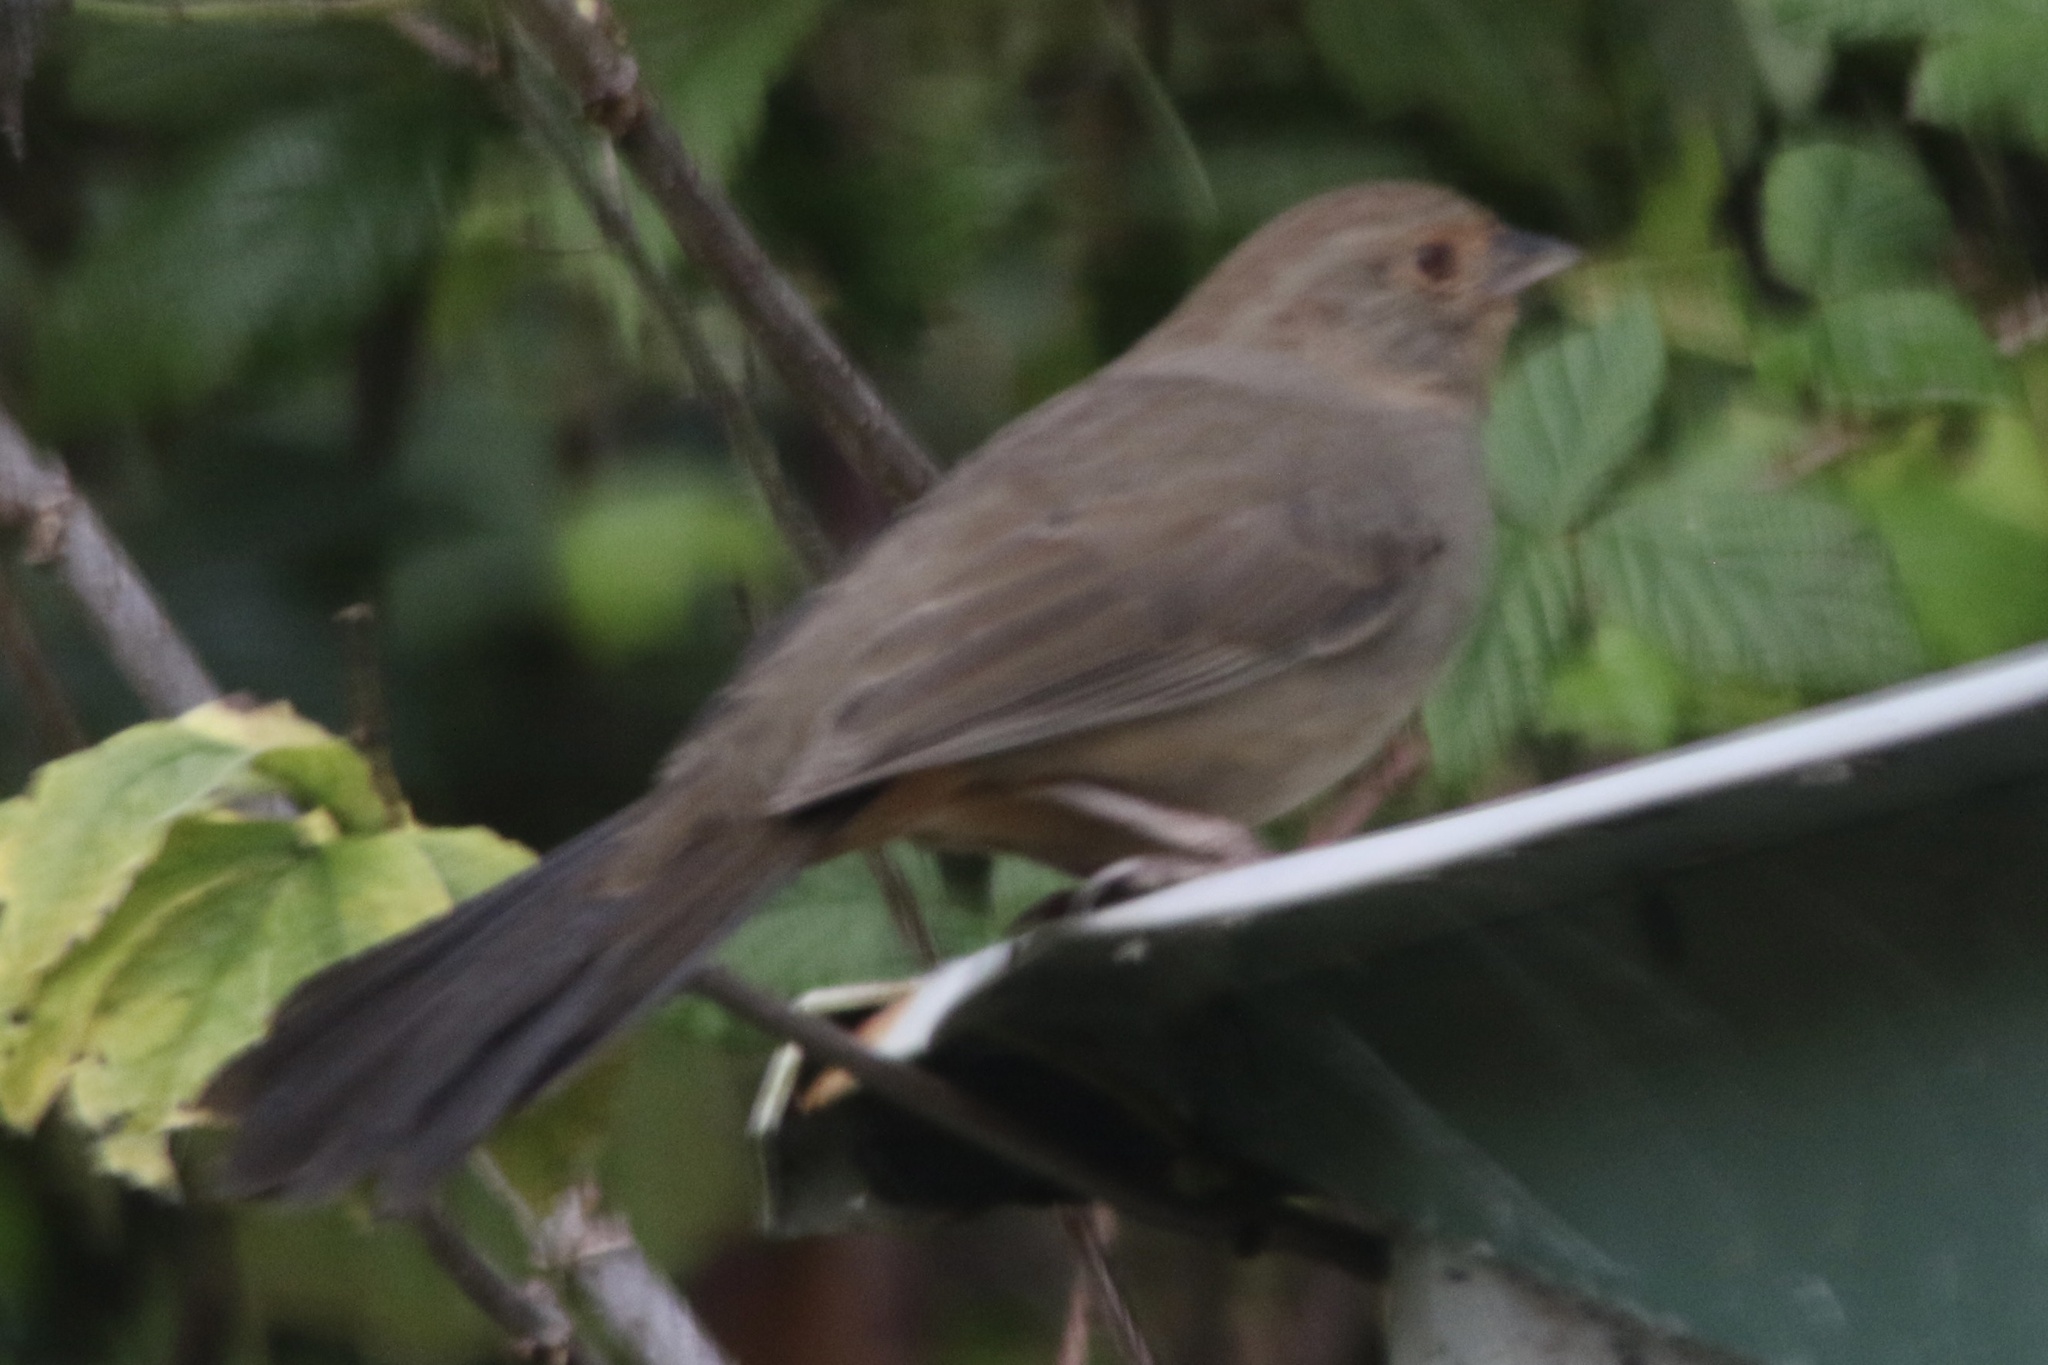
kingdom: Animalia
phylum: Chordata
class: Aves
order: Passeriformes
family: Passerellidae
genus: Melozone
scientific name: Melozone crissalis
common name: California towhee
